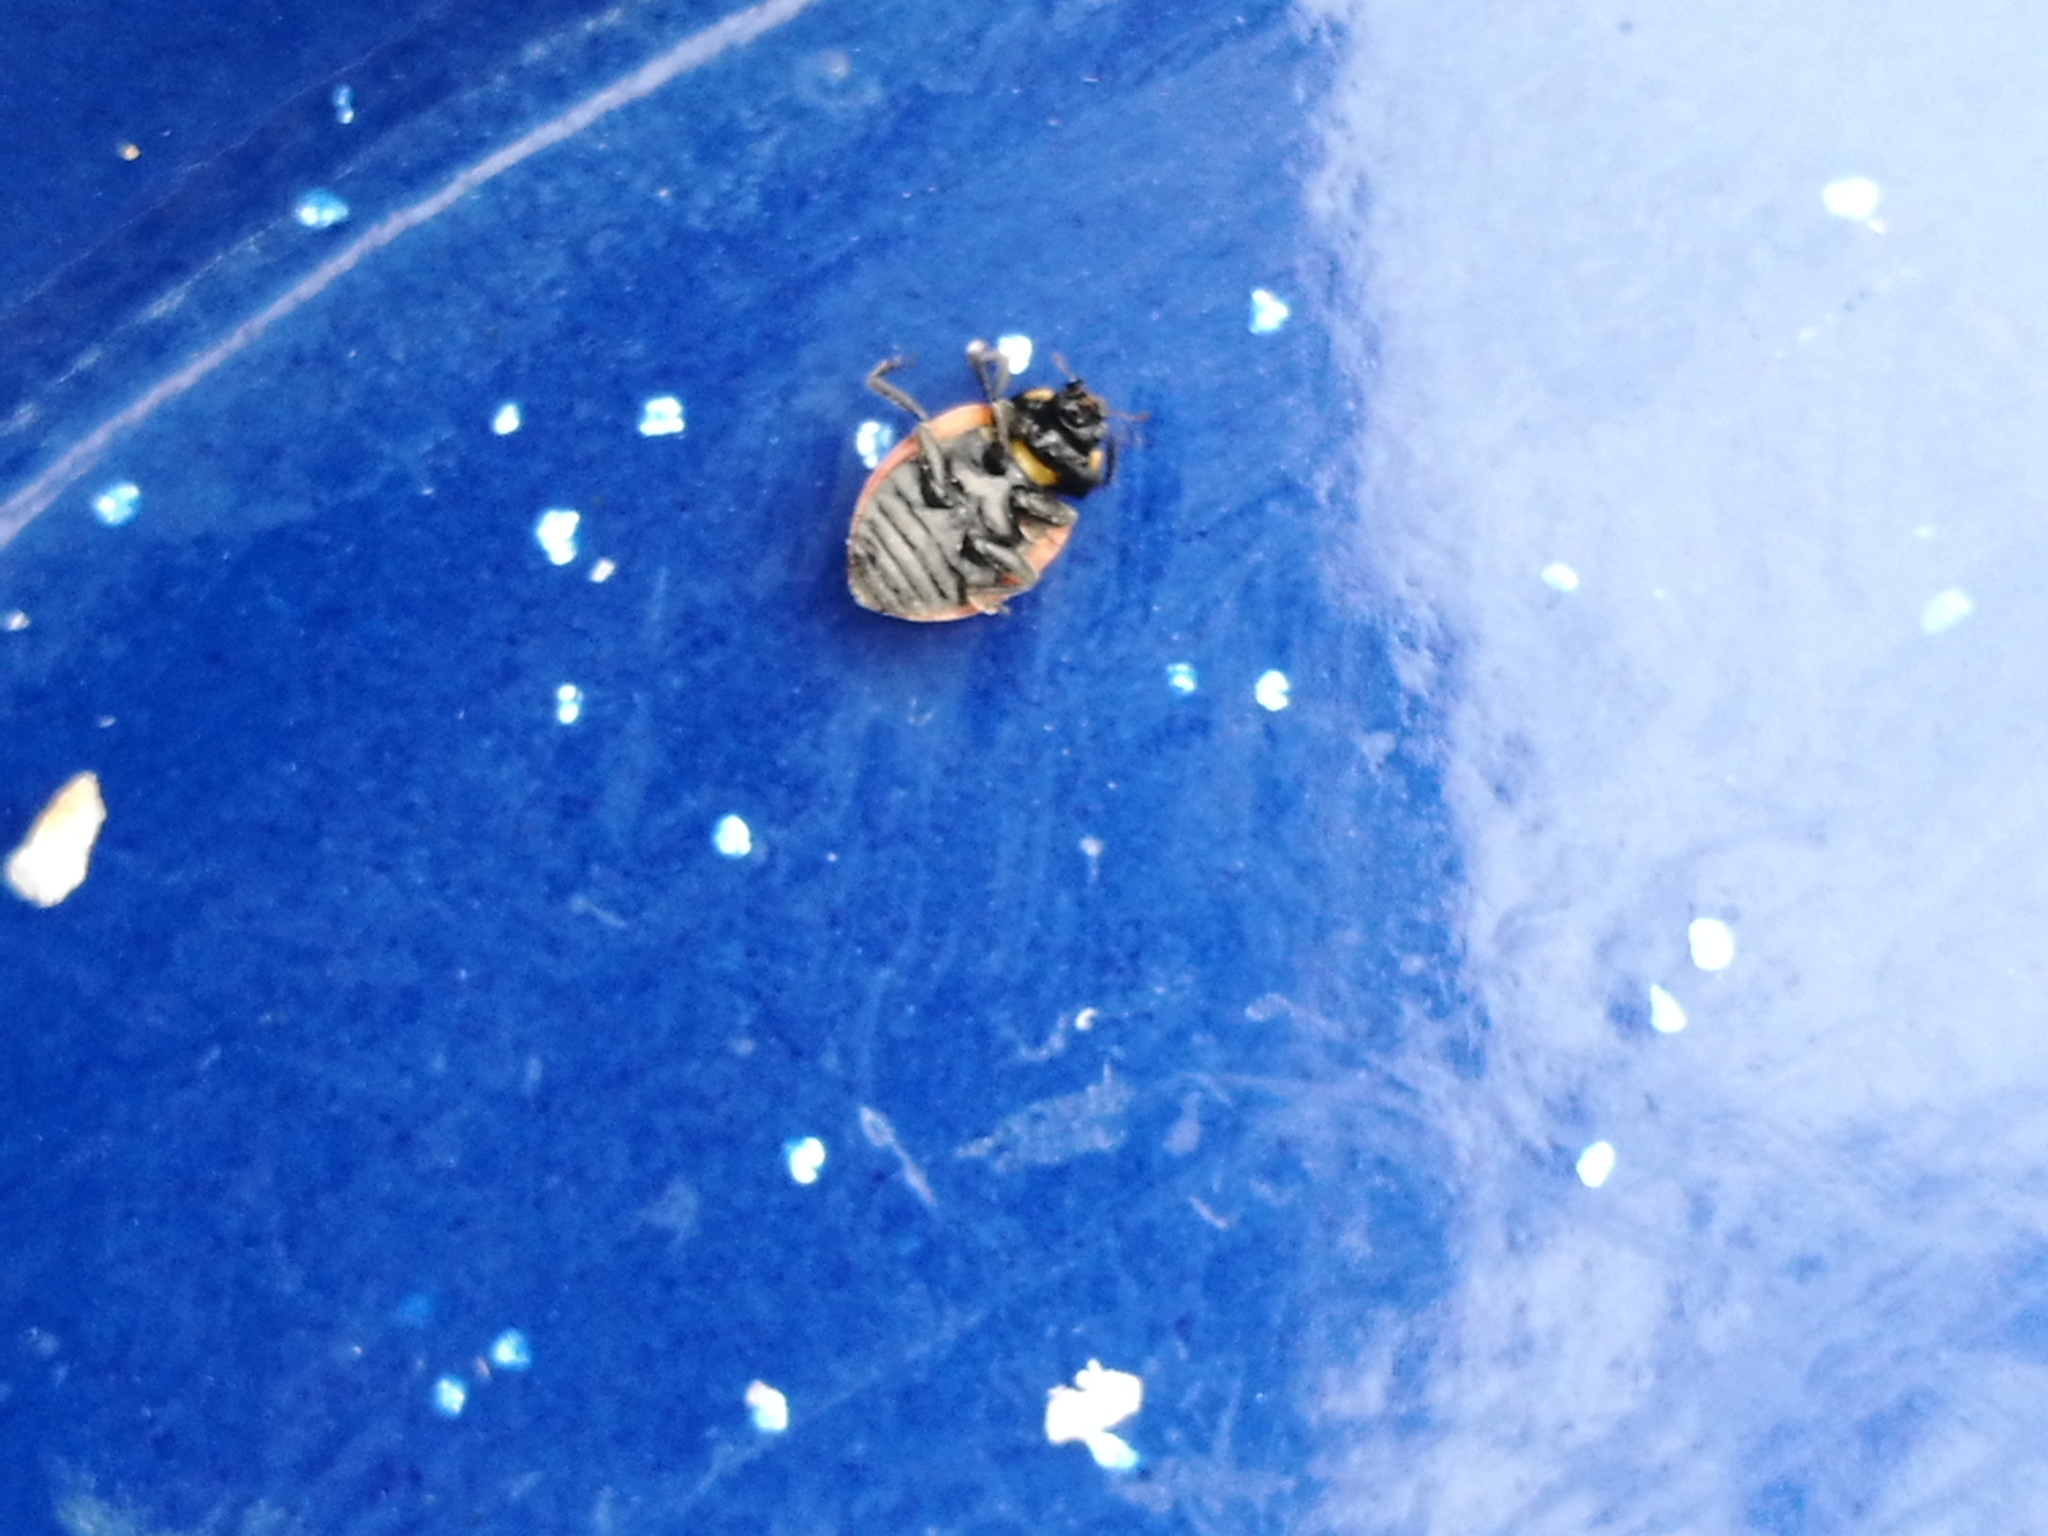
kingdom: Animalia
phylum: Arthropoda
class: Insecta
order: Coleoptera
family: Coccinellidae
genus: Coccinella
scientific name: Coccinella undecimpunctata
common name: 11-spot ladybird
